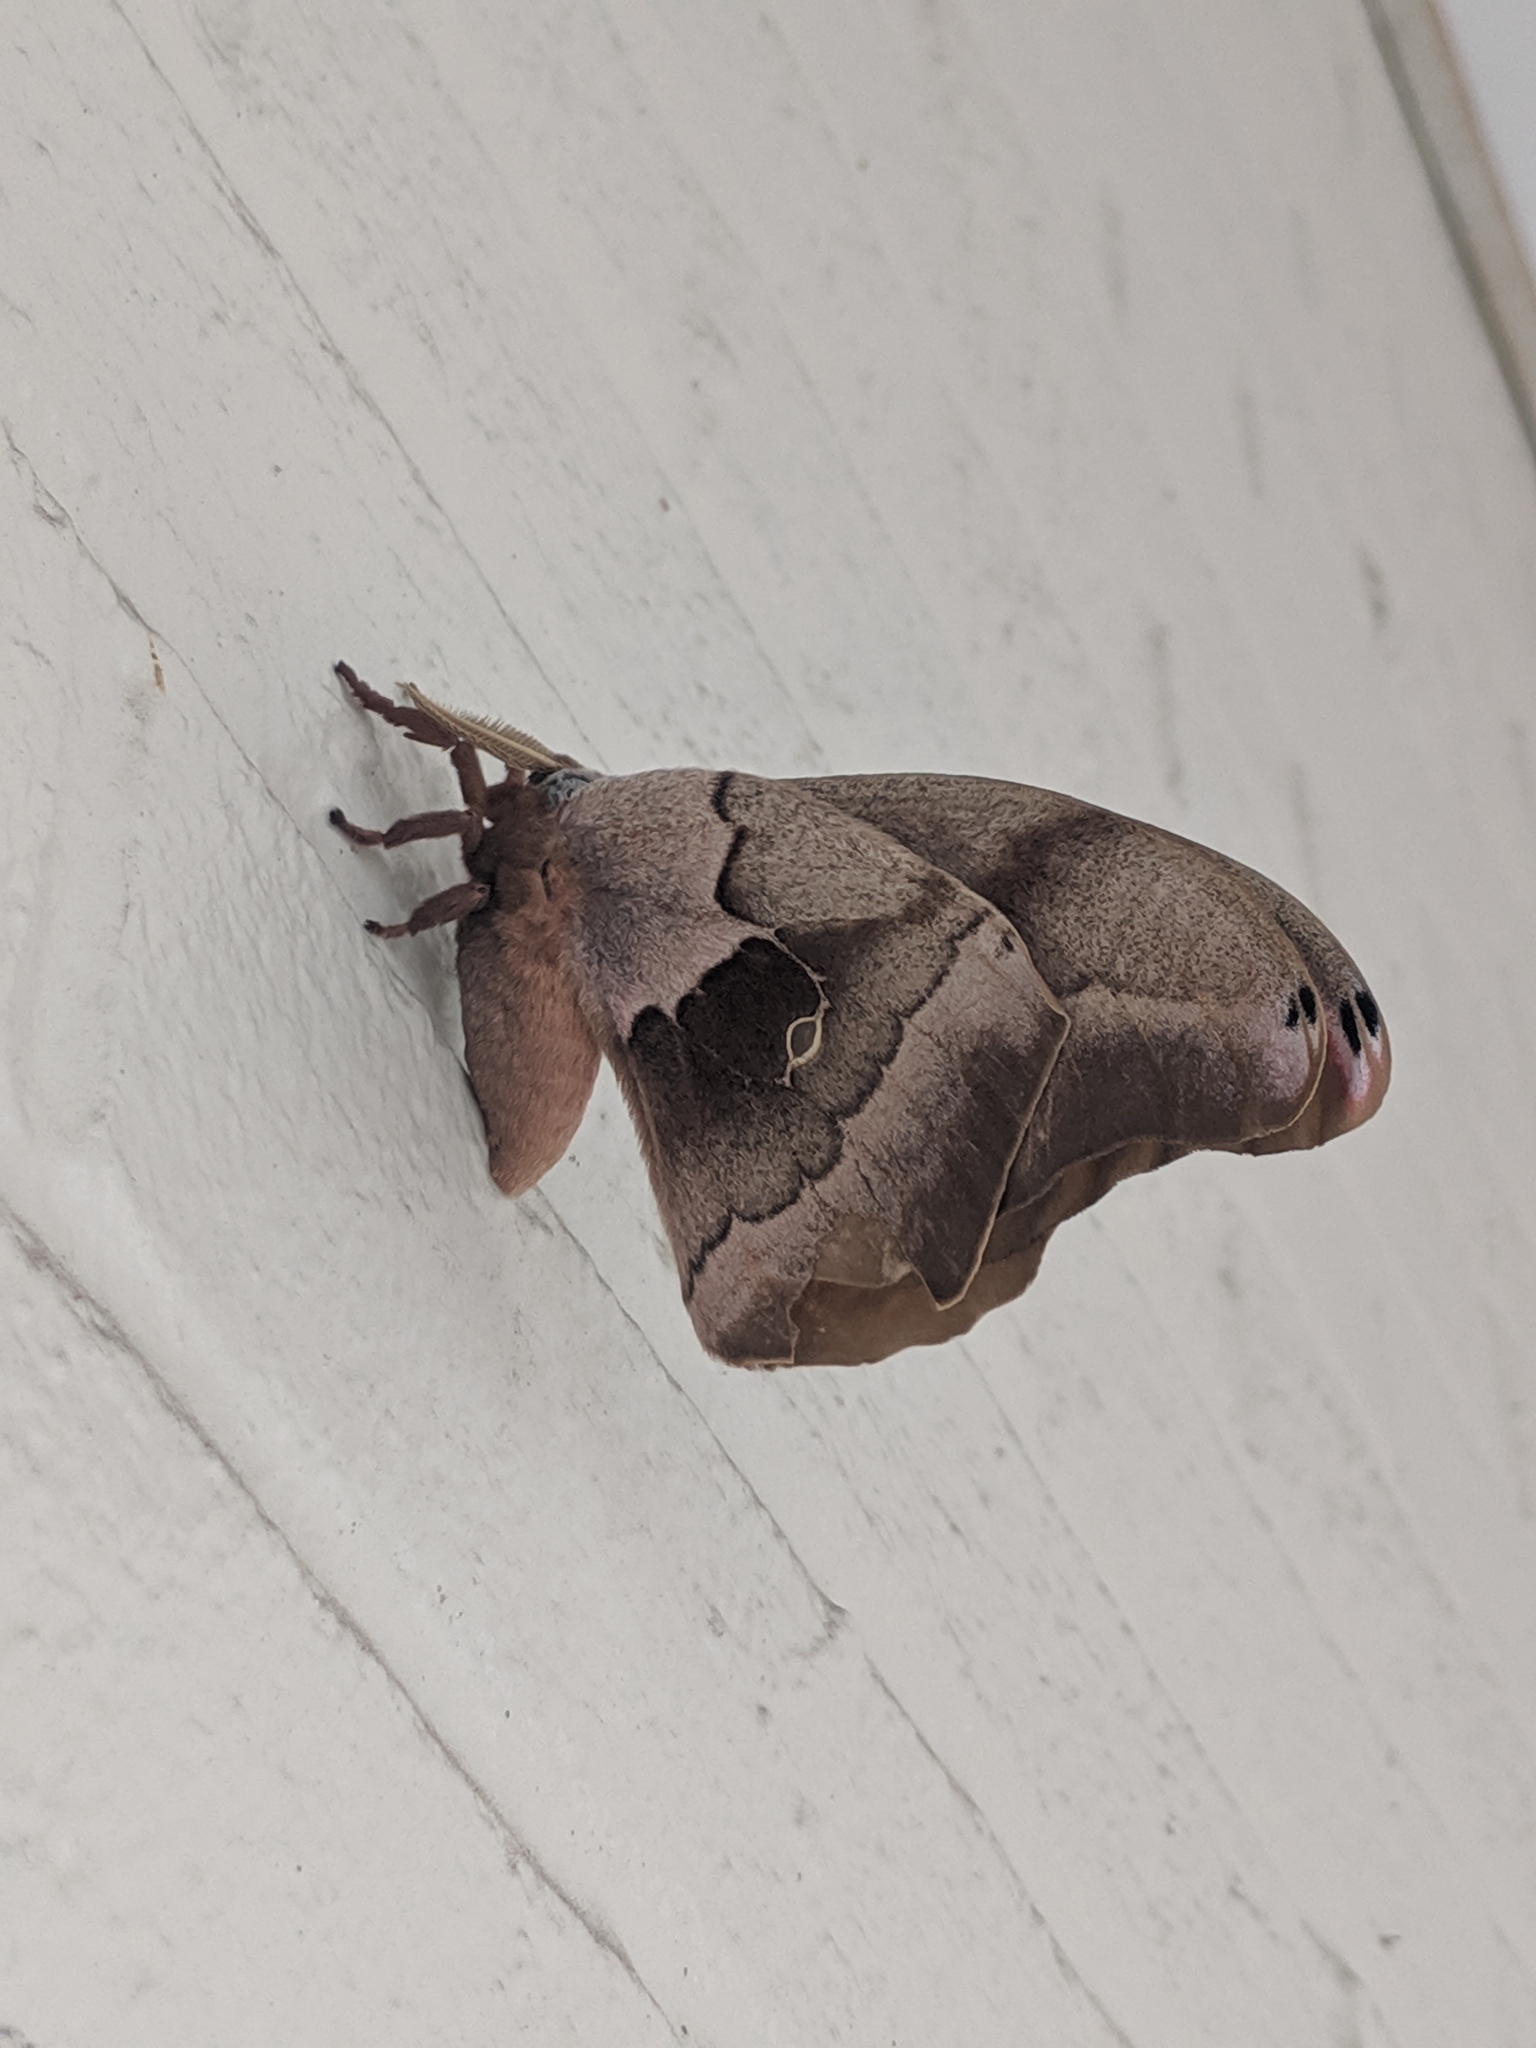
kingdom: Animalia
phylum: Arthropoda
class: Insecta
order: Lepidoptera
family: Saturniidae
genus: Antheraea
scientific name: Antheraea polyphemus
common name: Polyphemus moth
